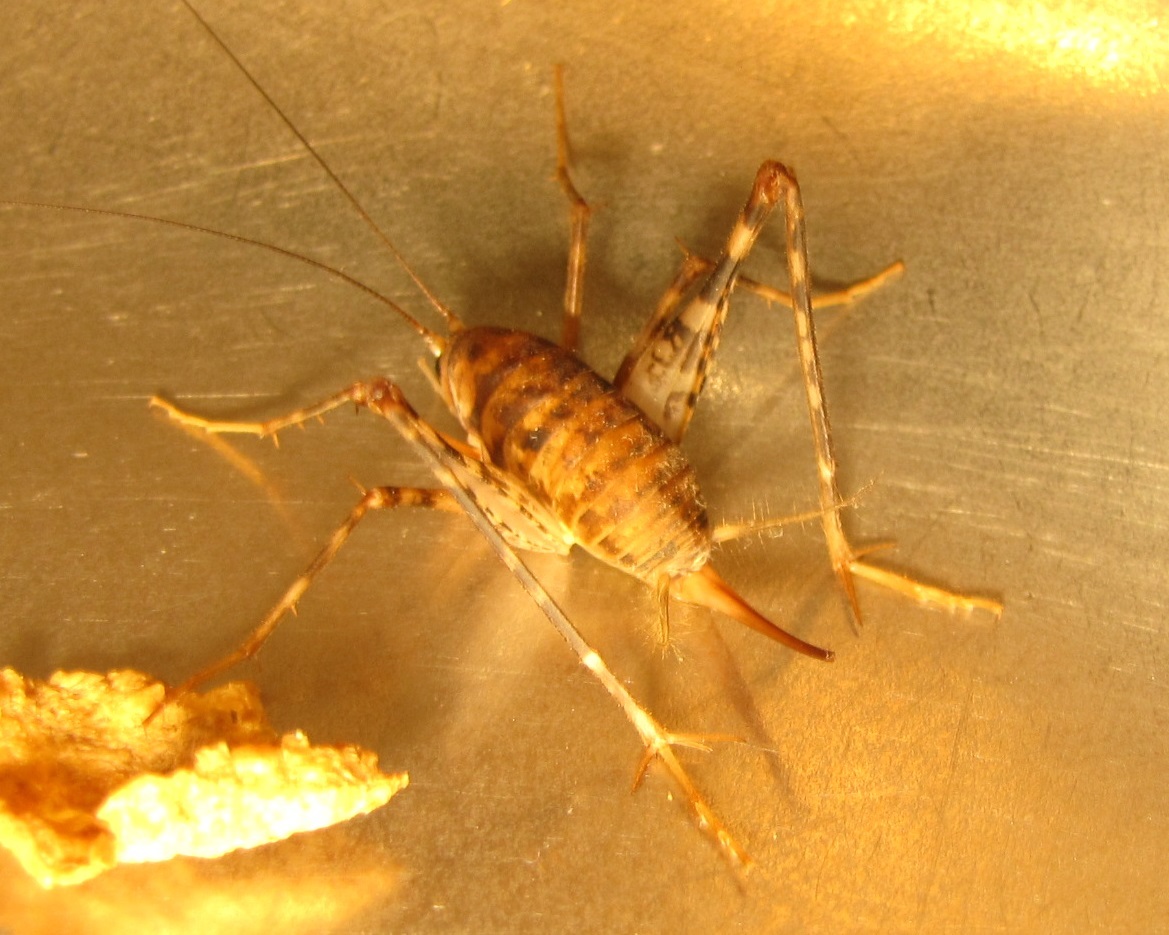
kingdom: Animalia
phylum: Arthropoda
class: Insecta
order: Orthoptera
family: Rhaphidophoridae
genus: Tachycines
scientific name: Tachycines asynamorus
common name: Greenhouse camel cricket
